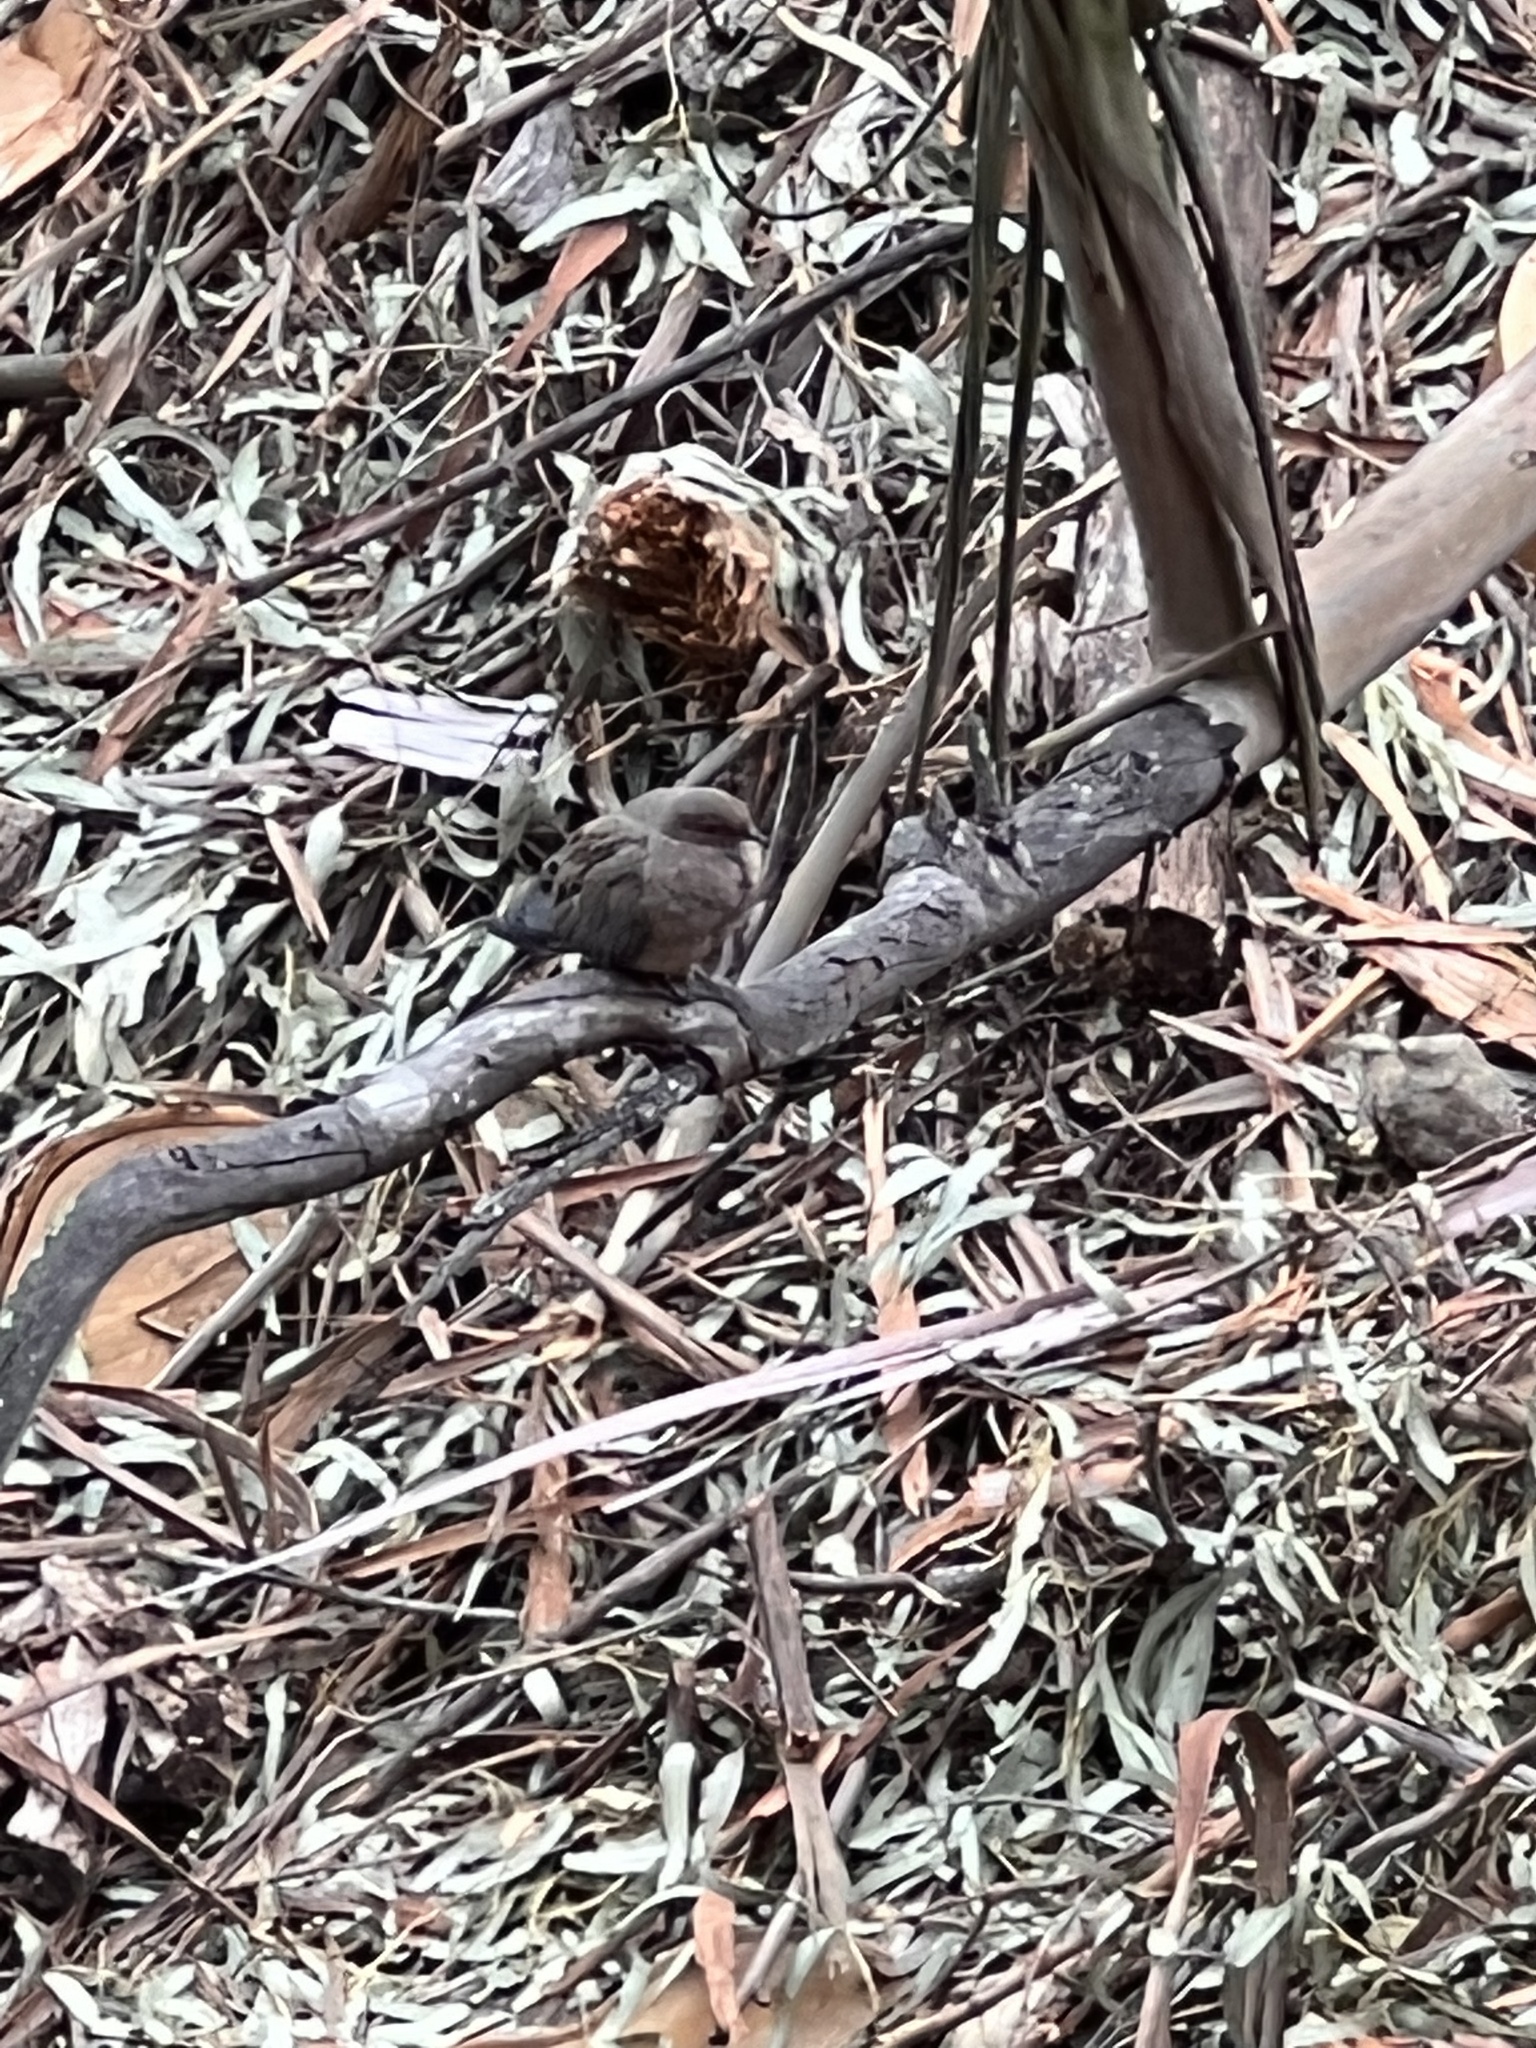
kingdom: Animalia
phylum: Chordata
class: Aves
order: Columbiformes
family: Columbidae
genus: Zenaida
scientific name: Zenaida macroura
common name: Mourning dove
